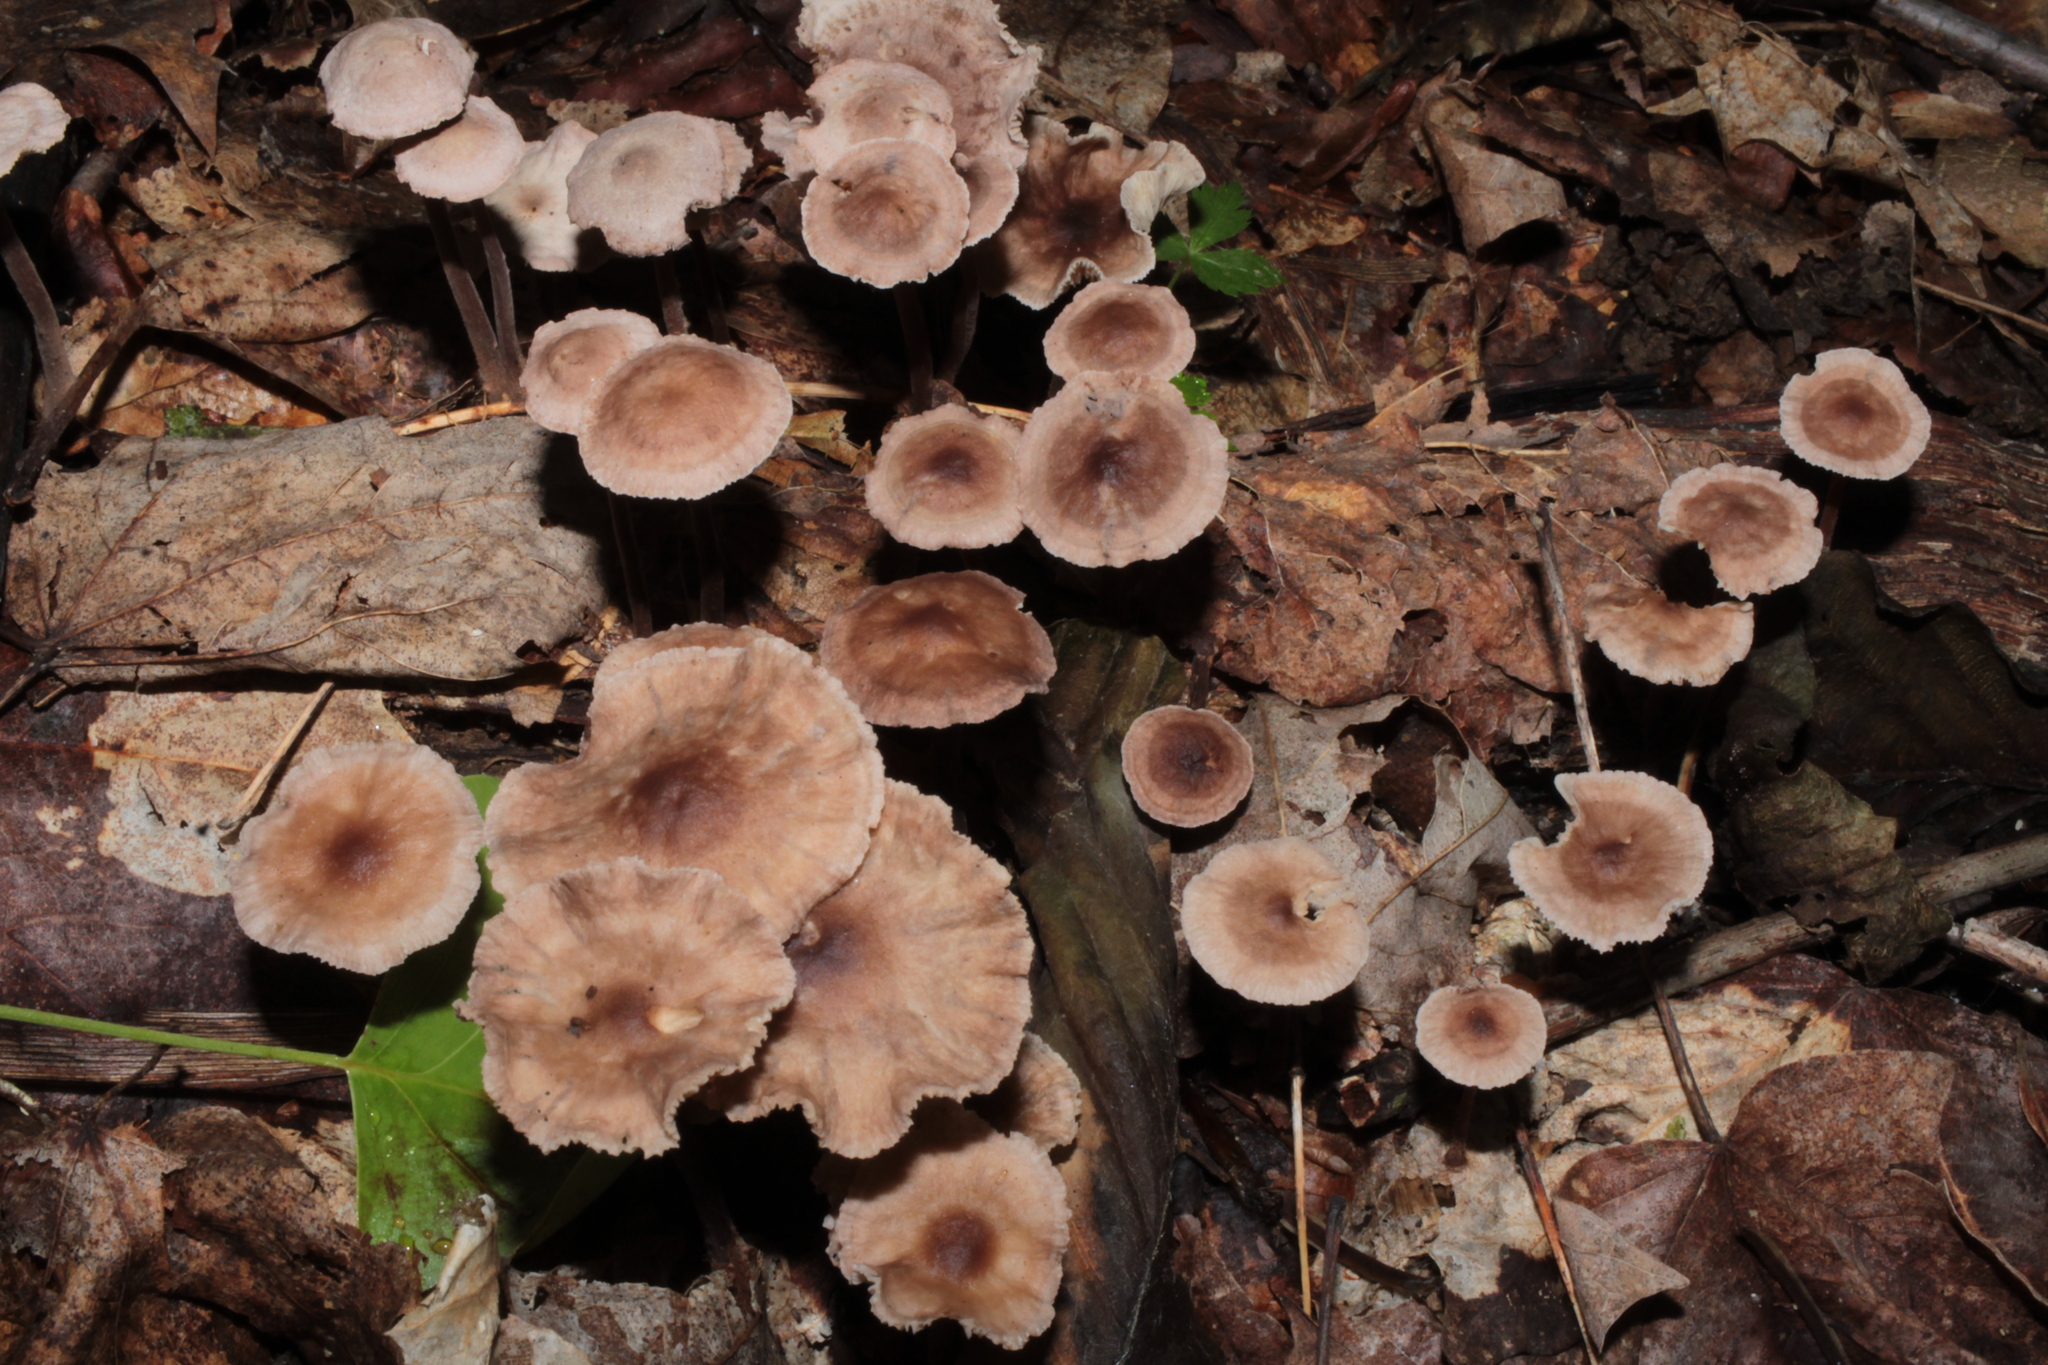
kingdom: Fungi
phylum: Basidiomycota
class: Agaricomycetes
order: Agaricales
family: Omphalotaceae
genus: Gymnopus
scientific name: Gymnopus semihirtipes
